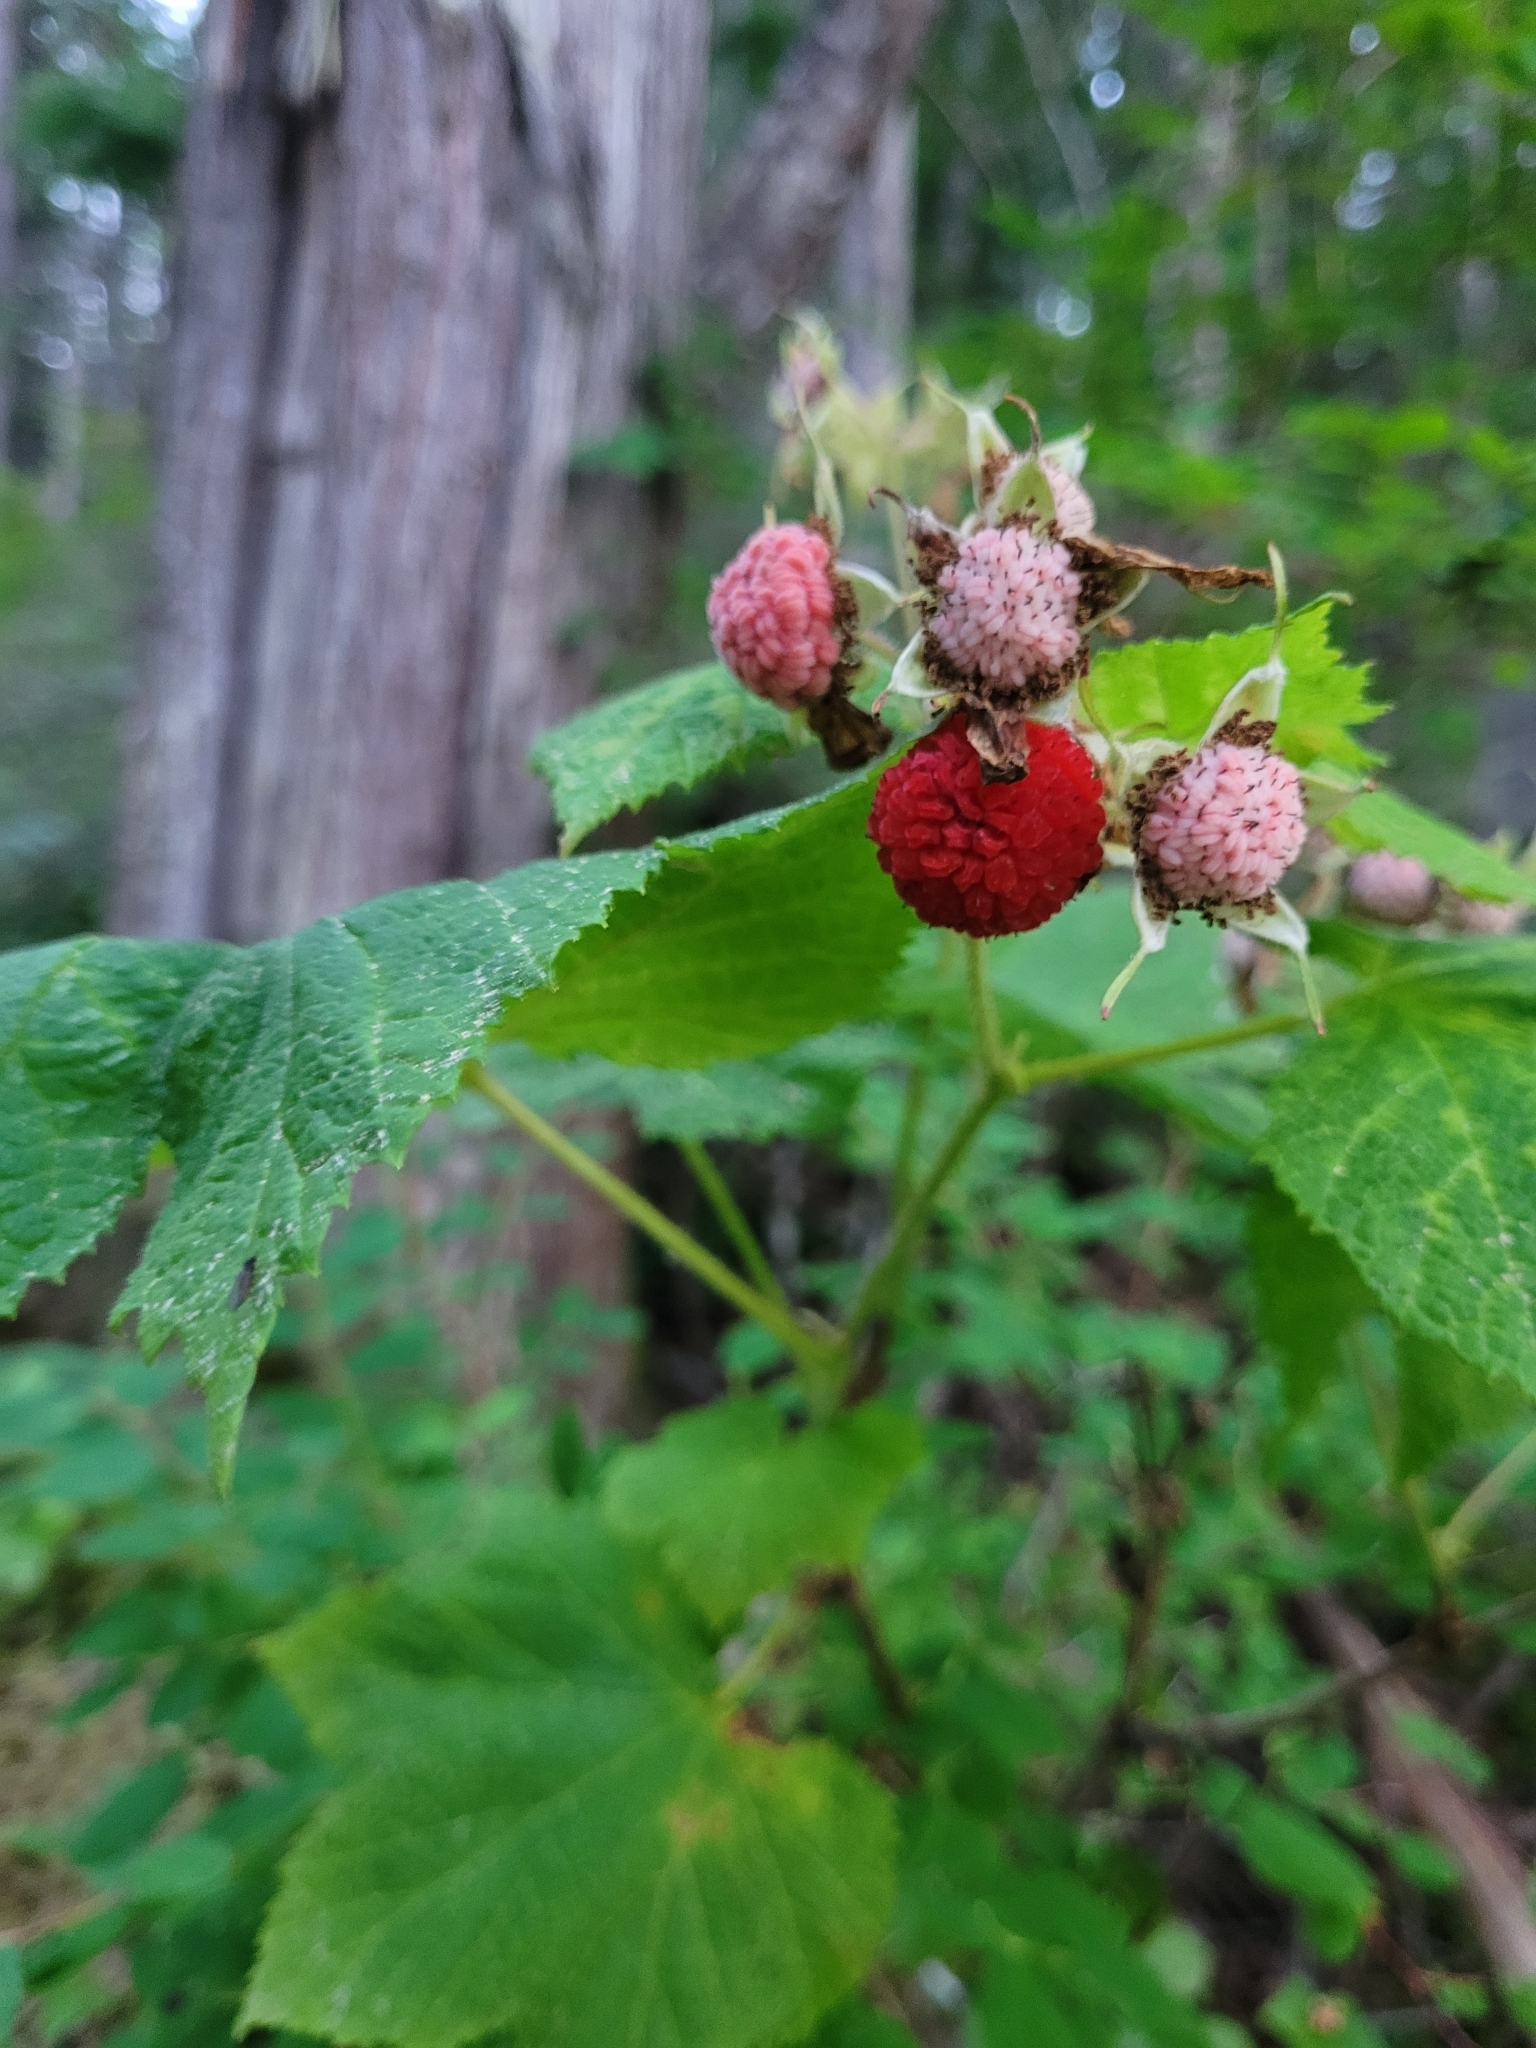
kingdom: Plantae
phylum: Tracheophyta
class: Magnoliopsida
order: Rosales
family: Rosaceae
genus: Rubus
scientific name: Rubus parviflorus
